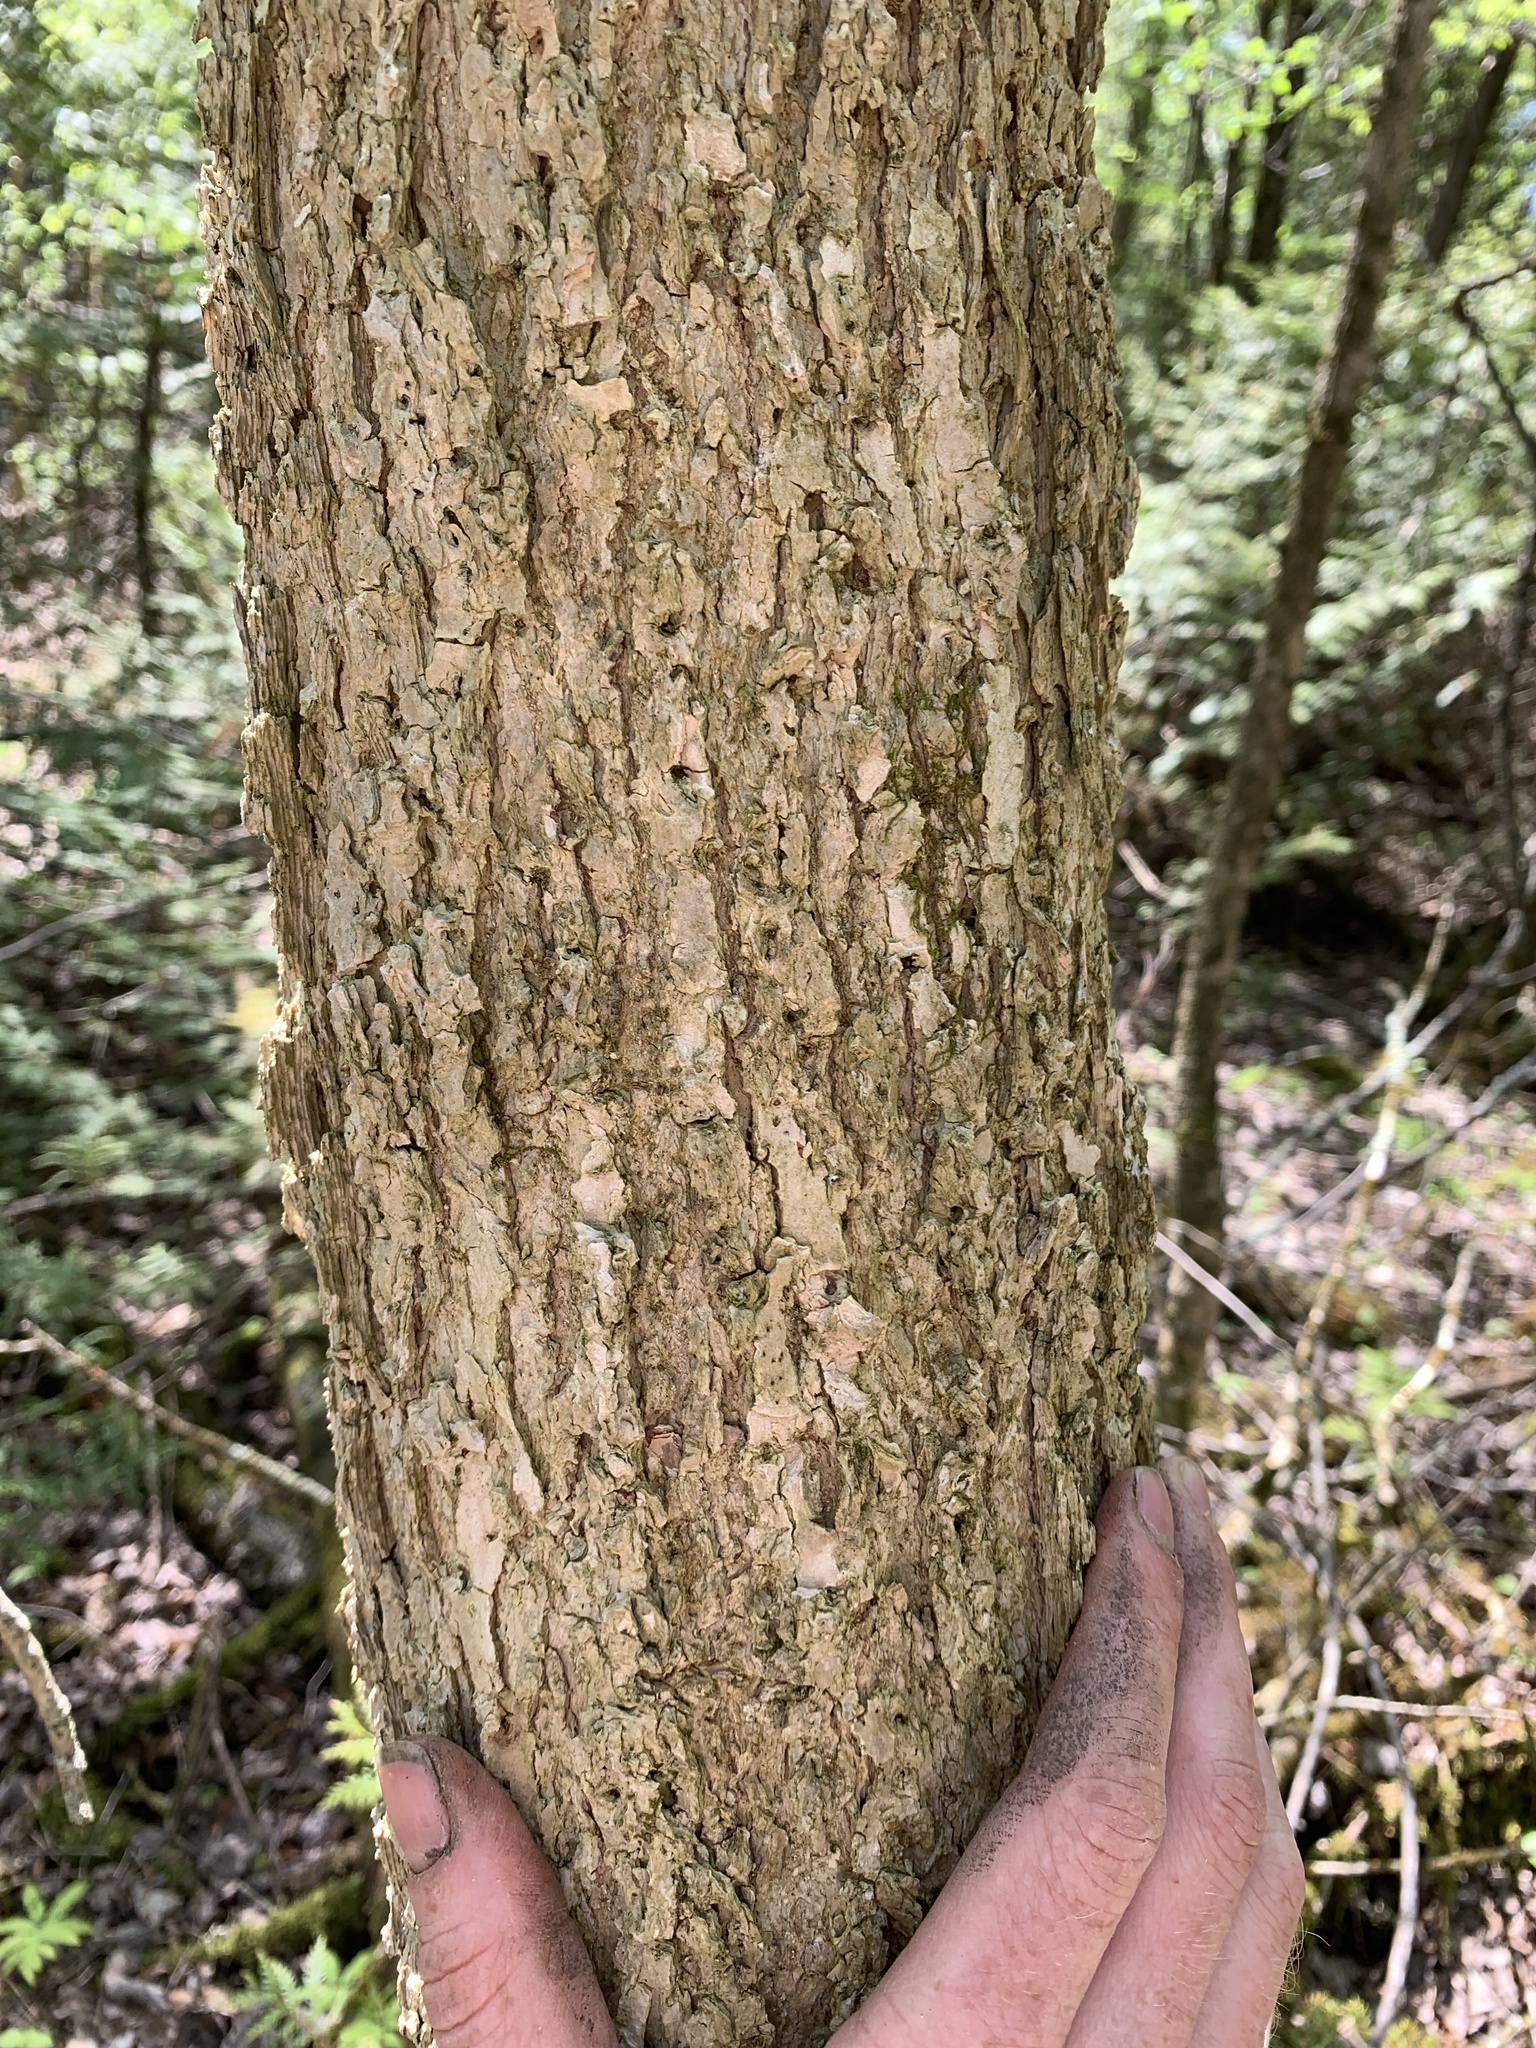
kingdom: Plantae
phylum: Tracheophyta
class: Magnoliopsida
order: Lamiales
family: Oleaceae
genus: Fraxinus
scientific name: Fraxinus nigra
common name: Black ash
